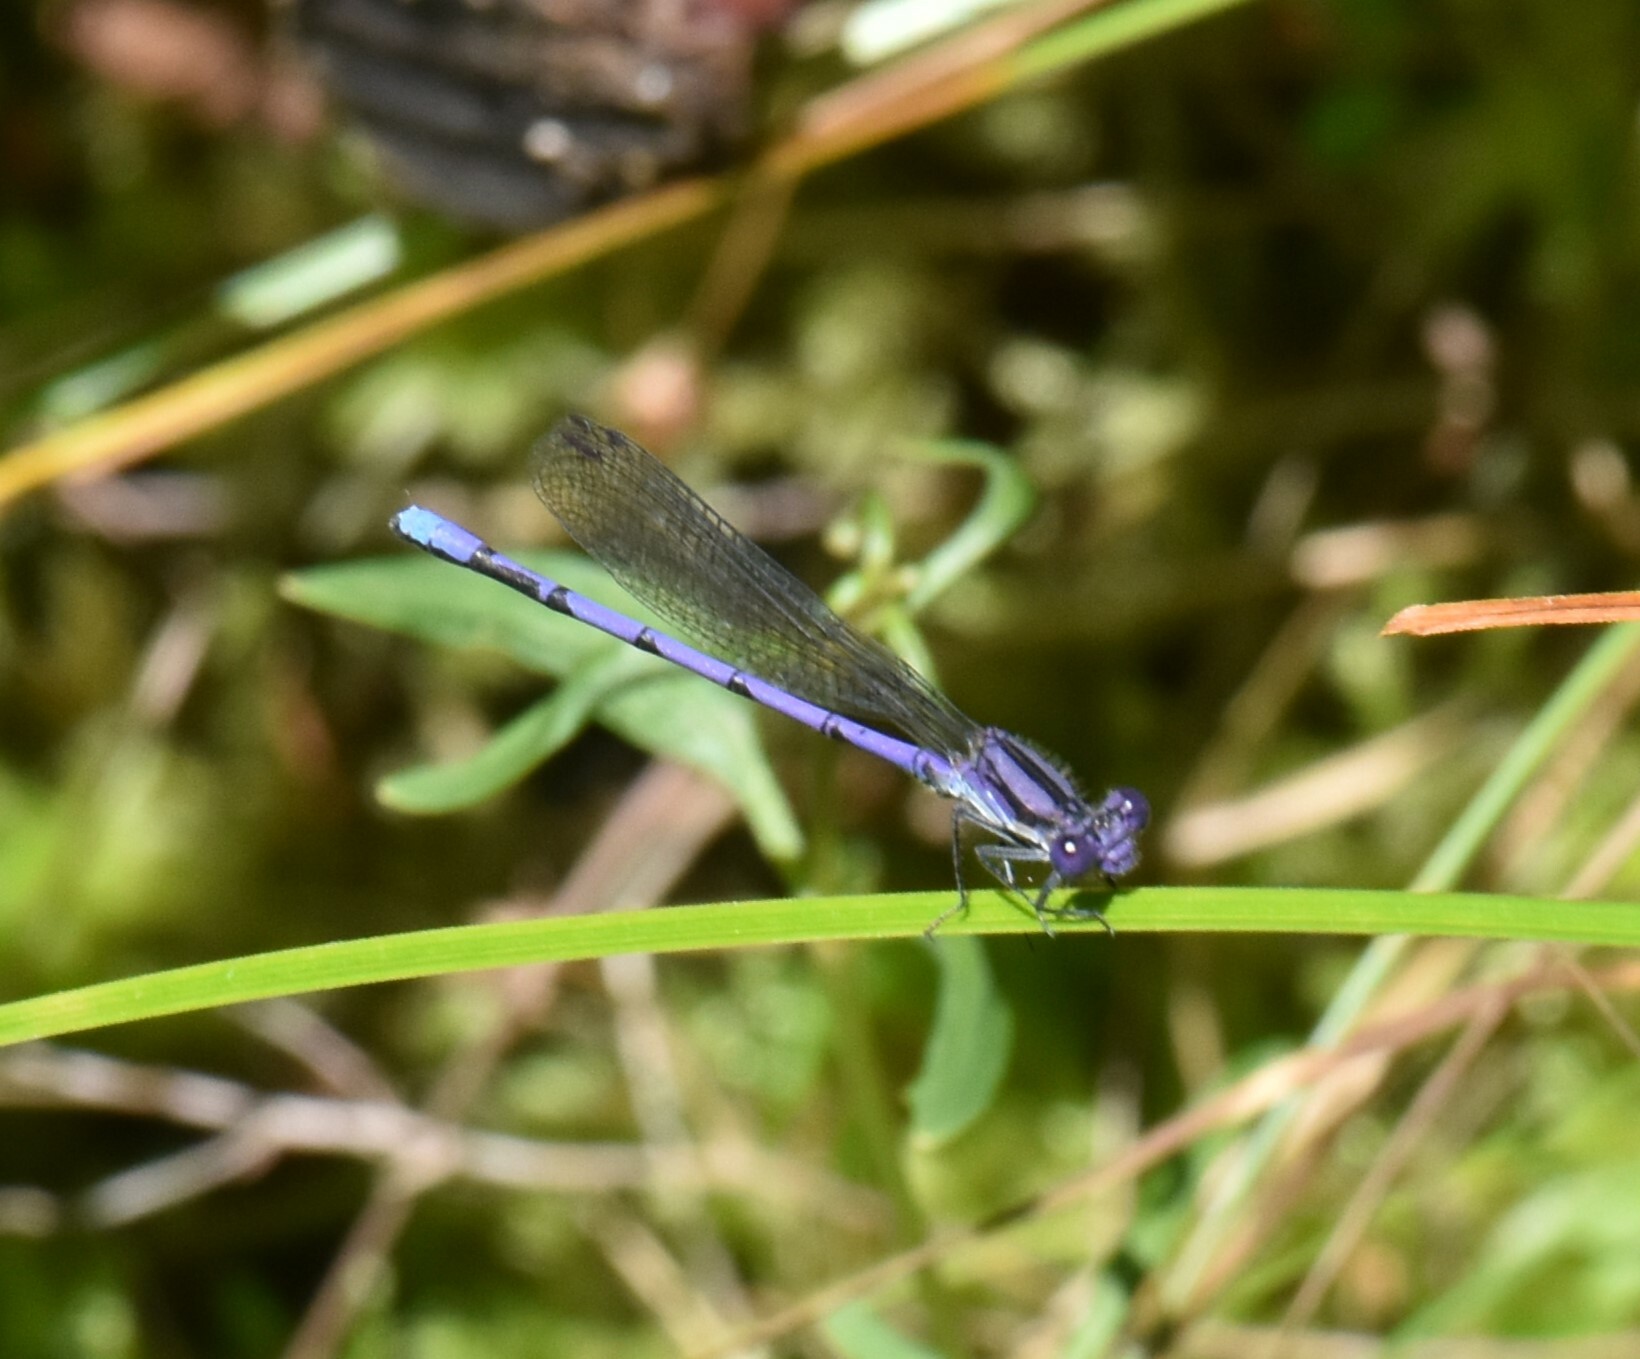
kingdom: Animalia
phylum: Arthropoda
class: Insecta
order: Odonata
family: Coenagrionidae
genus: Argia
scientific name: Argia fumipennis
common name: Variable dancer
